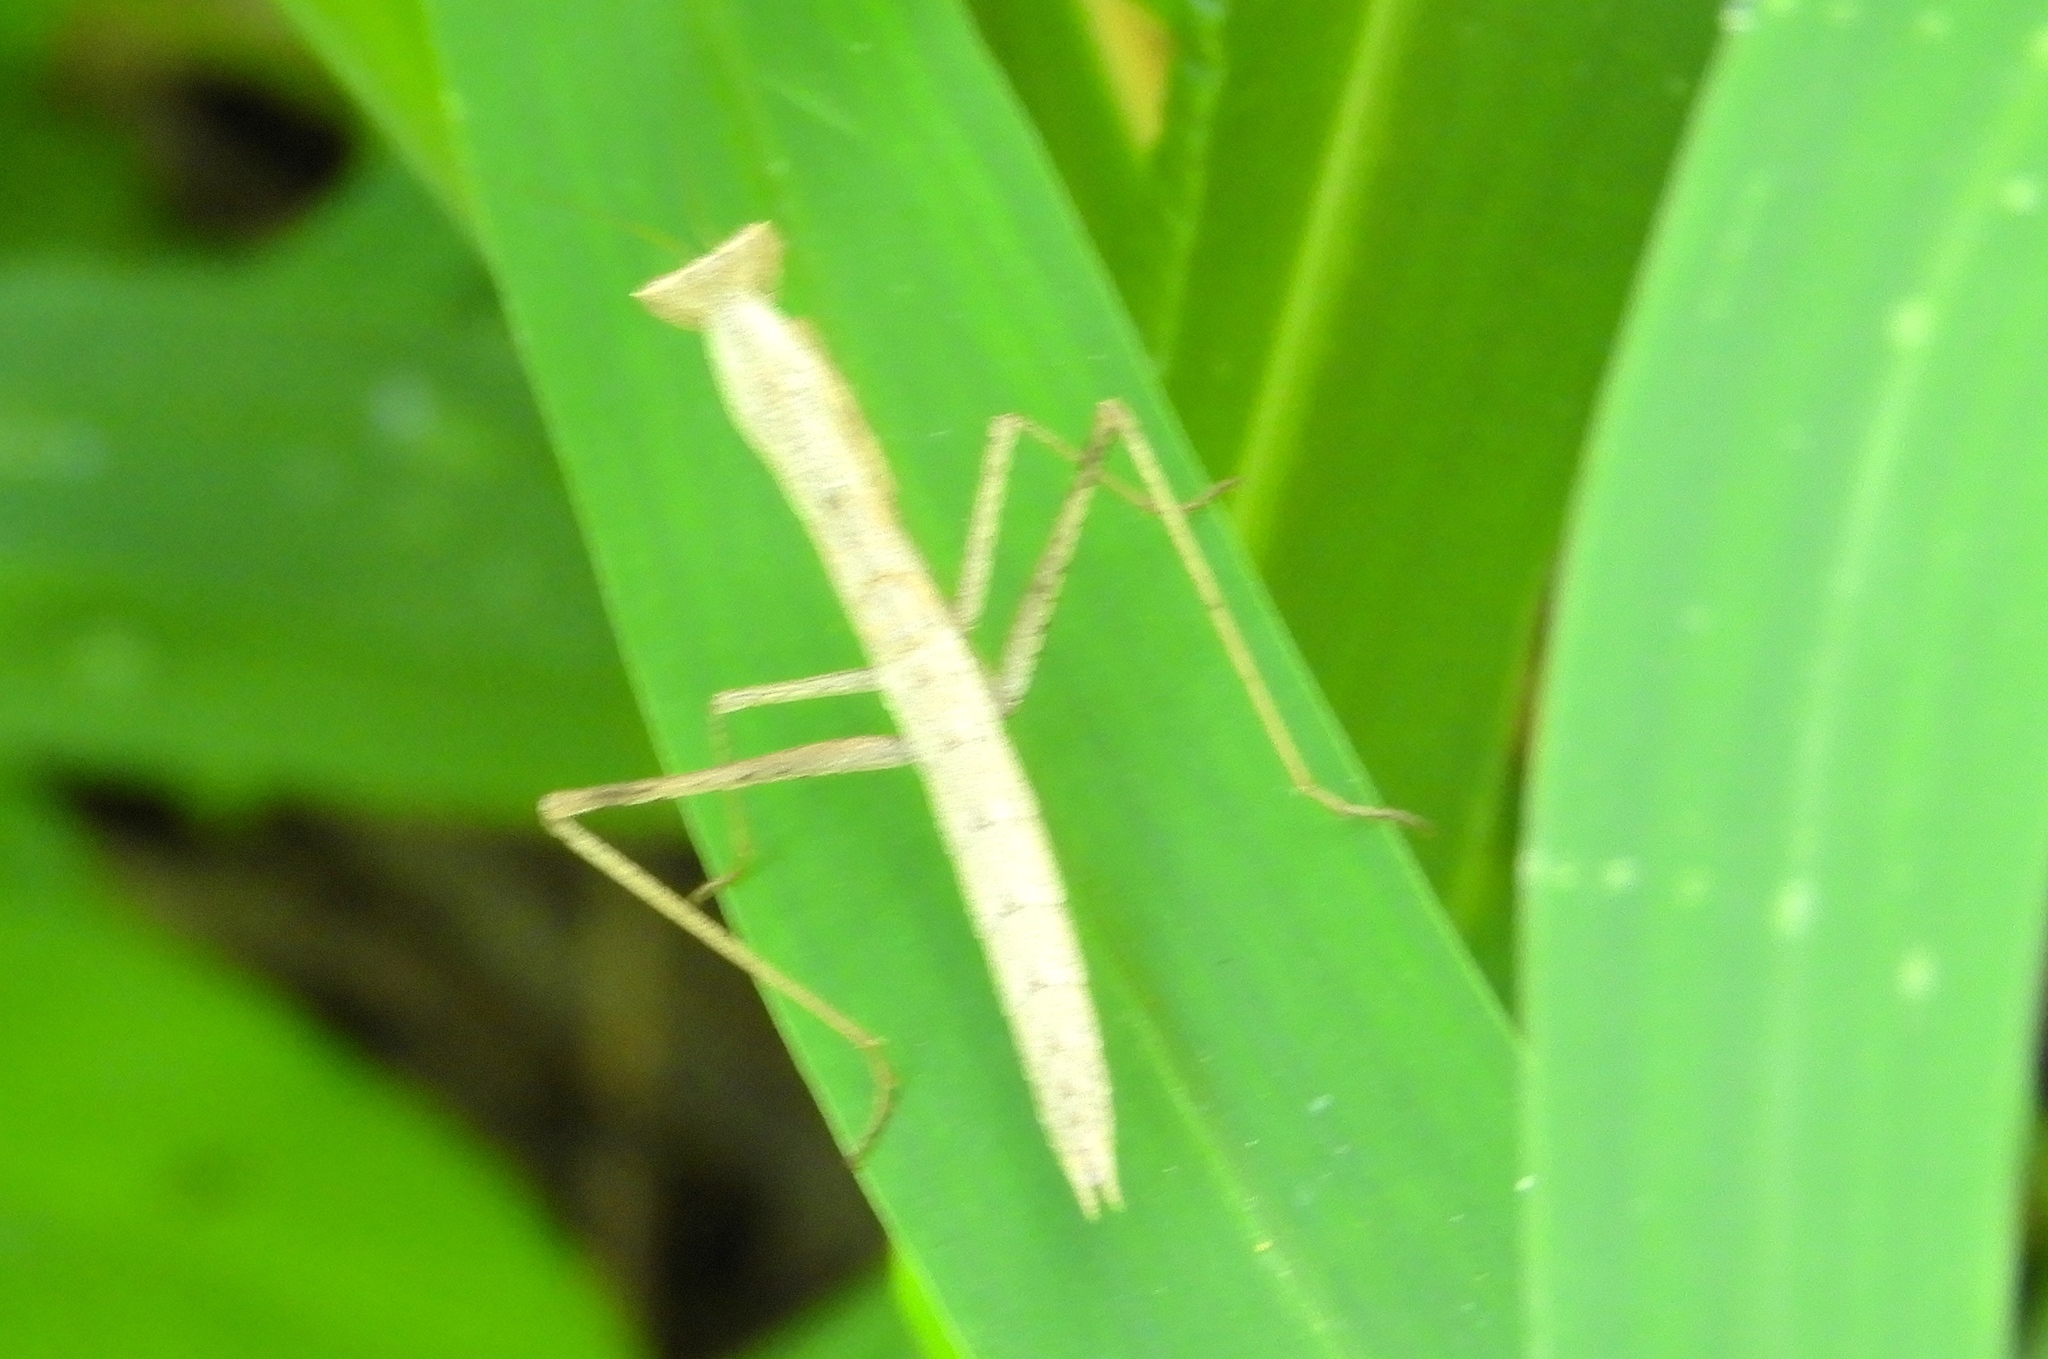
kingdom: Animalia
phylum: Arthropoda
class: Insecta
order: Mantodea
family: Amelidae
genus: Yersinia
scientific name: Yersinia mexicana
